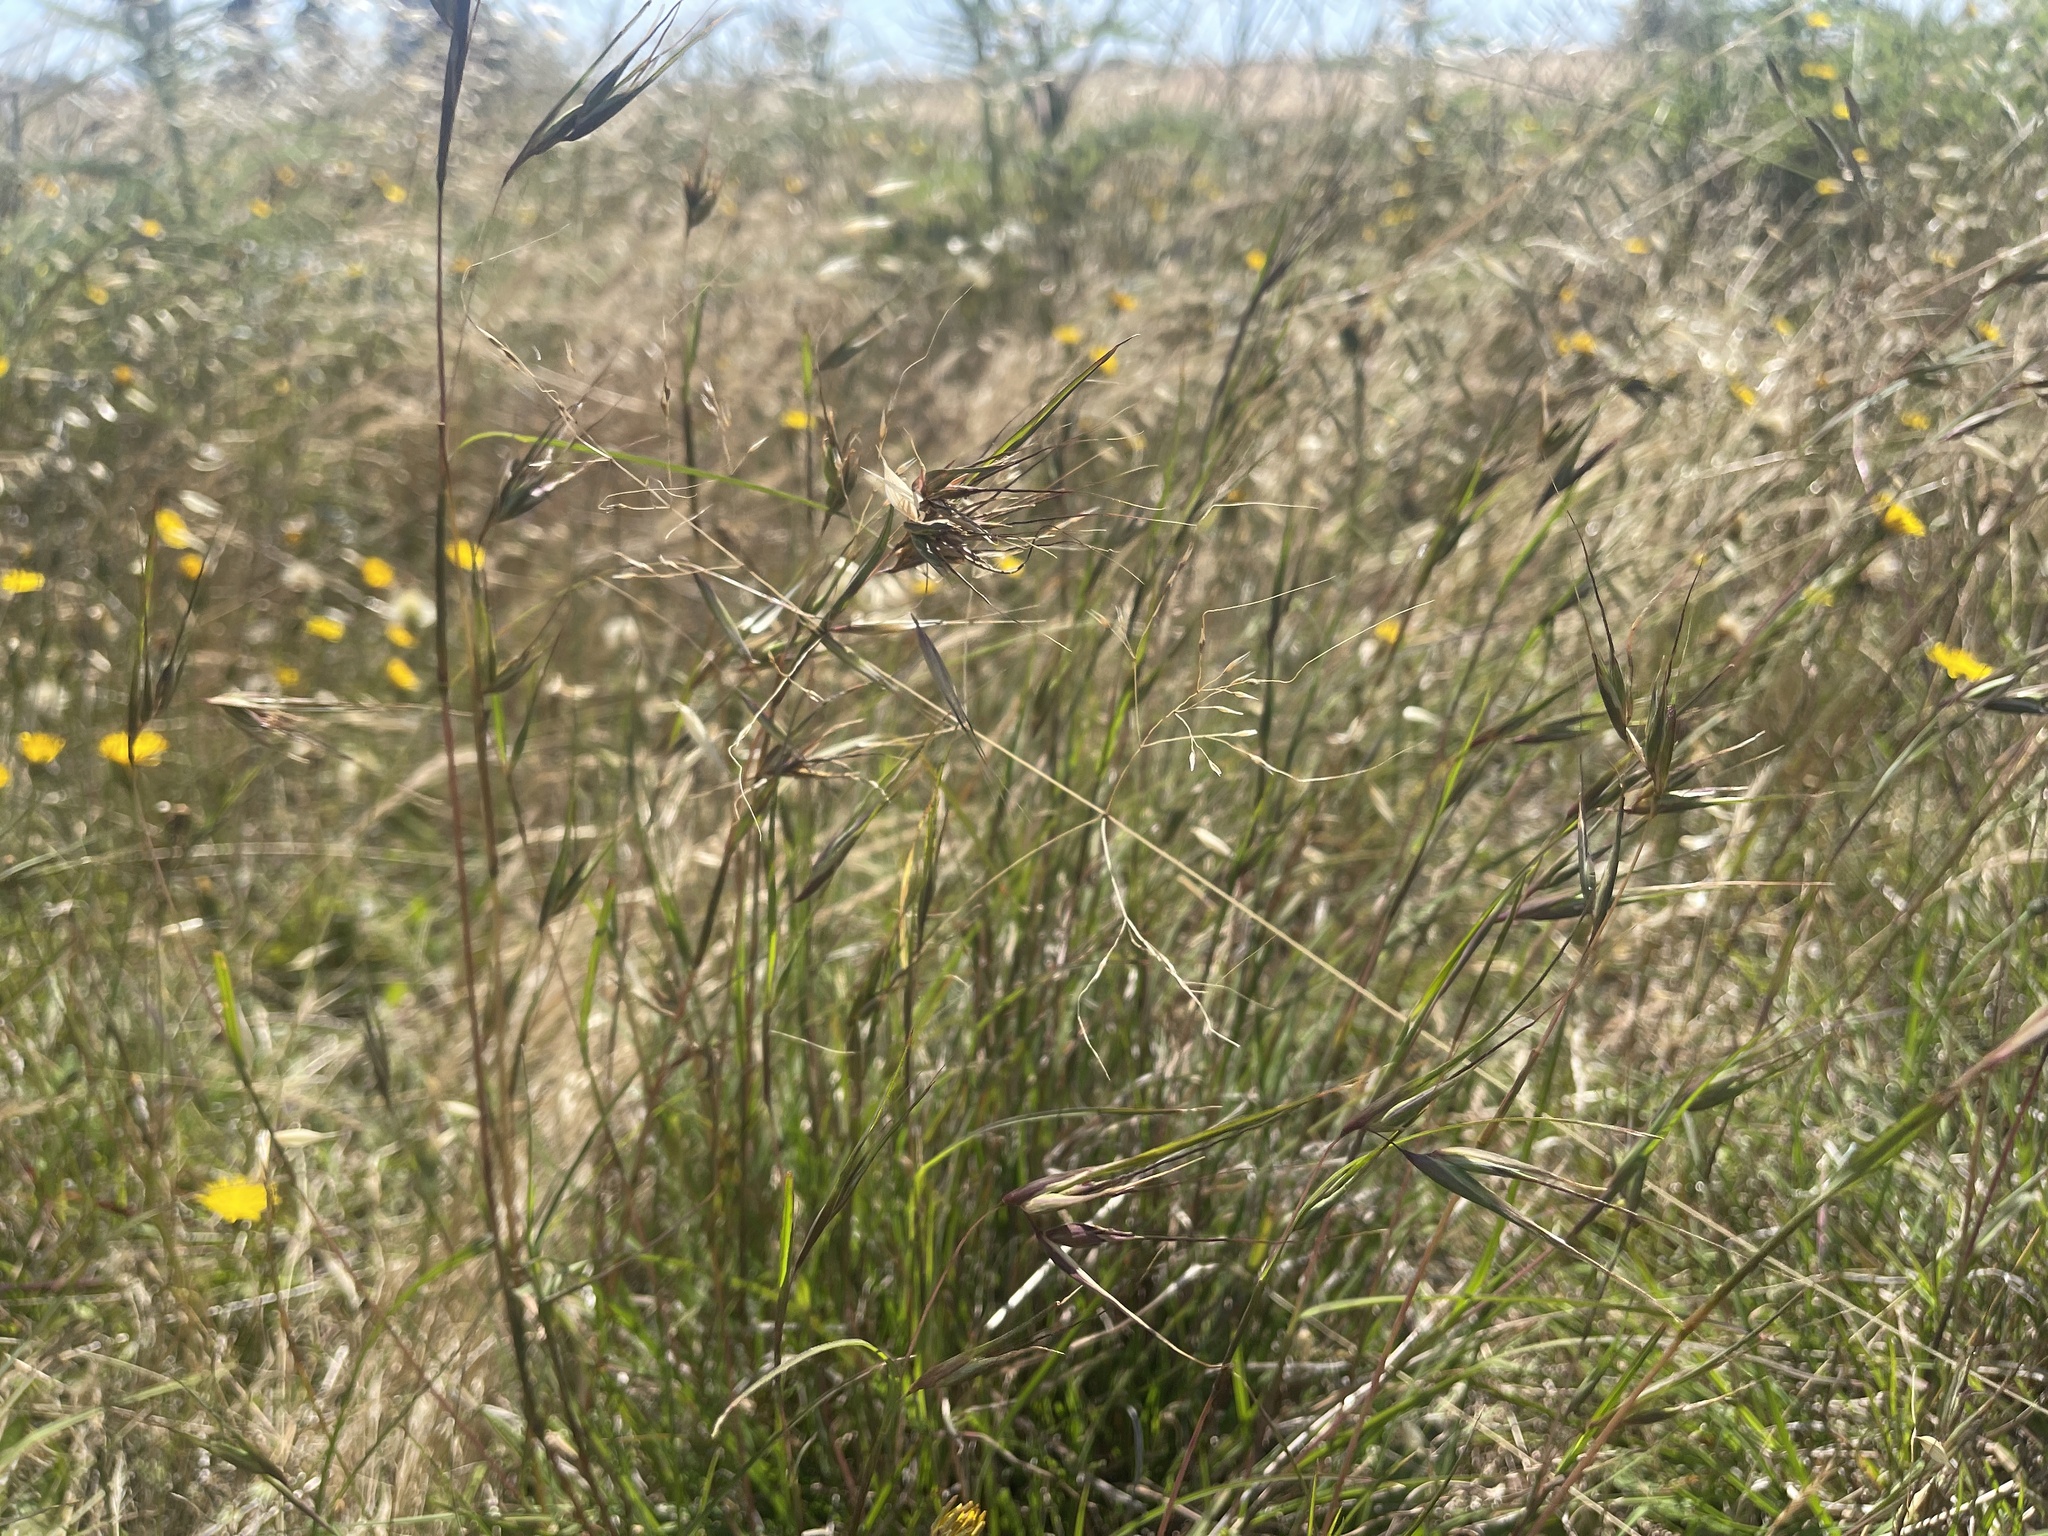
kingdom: Plantae
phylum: Tracheophyta
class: Liliopsida
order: Poales
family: Poaceae
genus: Themeda
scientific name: Themeda triandra
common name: Kangaroo grass
